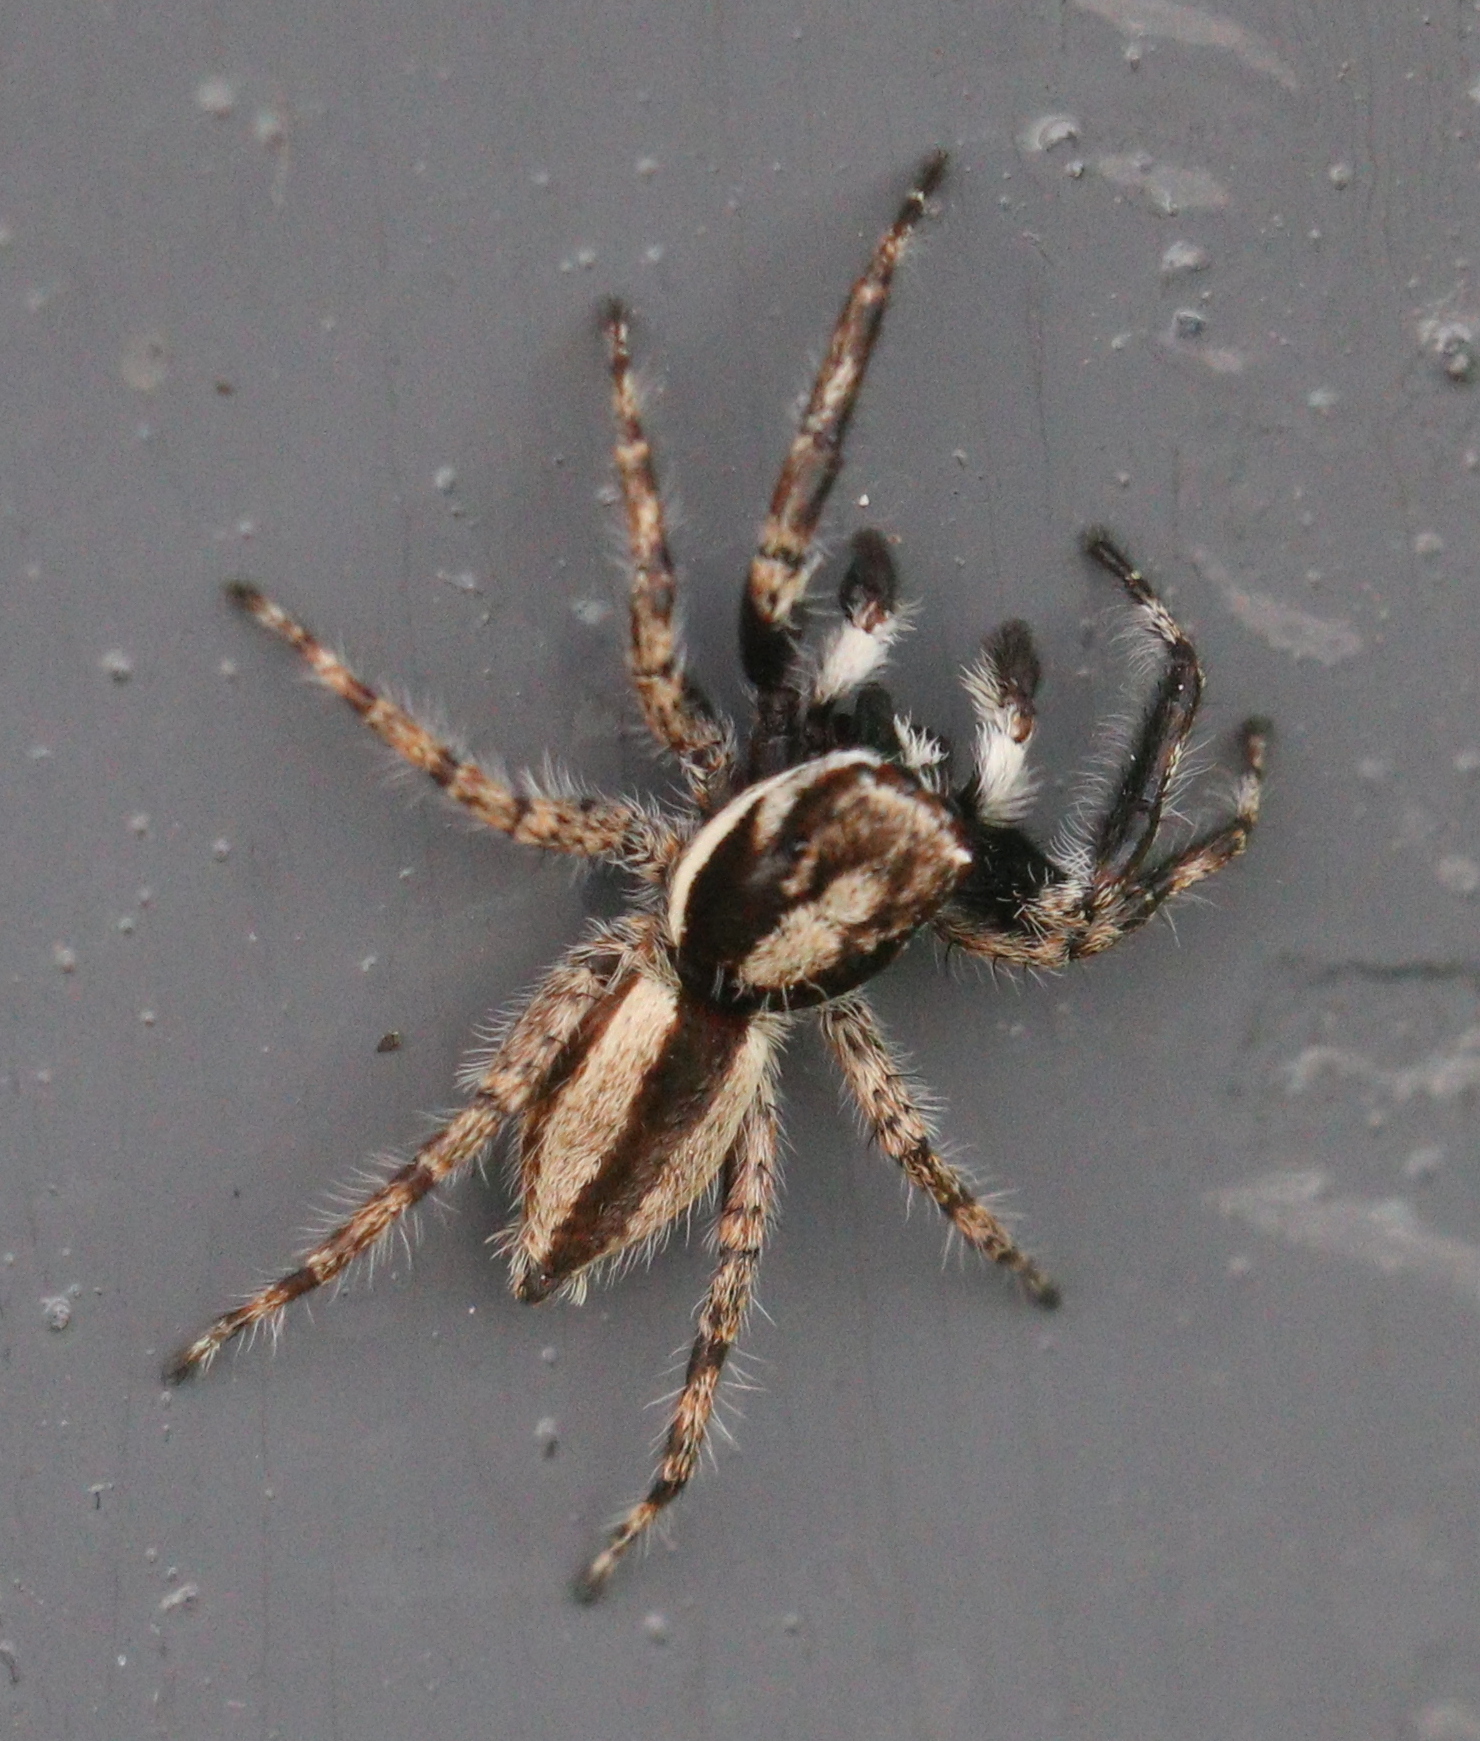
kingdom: Animalia
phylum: Arthropoda
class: Arachnida
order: Araneae
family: Salticidae
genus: Menemerus
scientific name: Menemerus bivittatus
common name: Gray wall jumper
